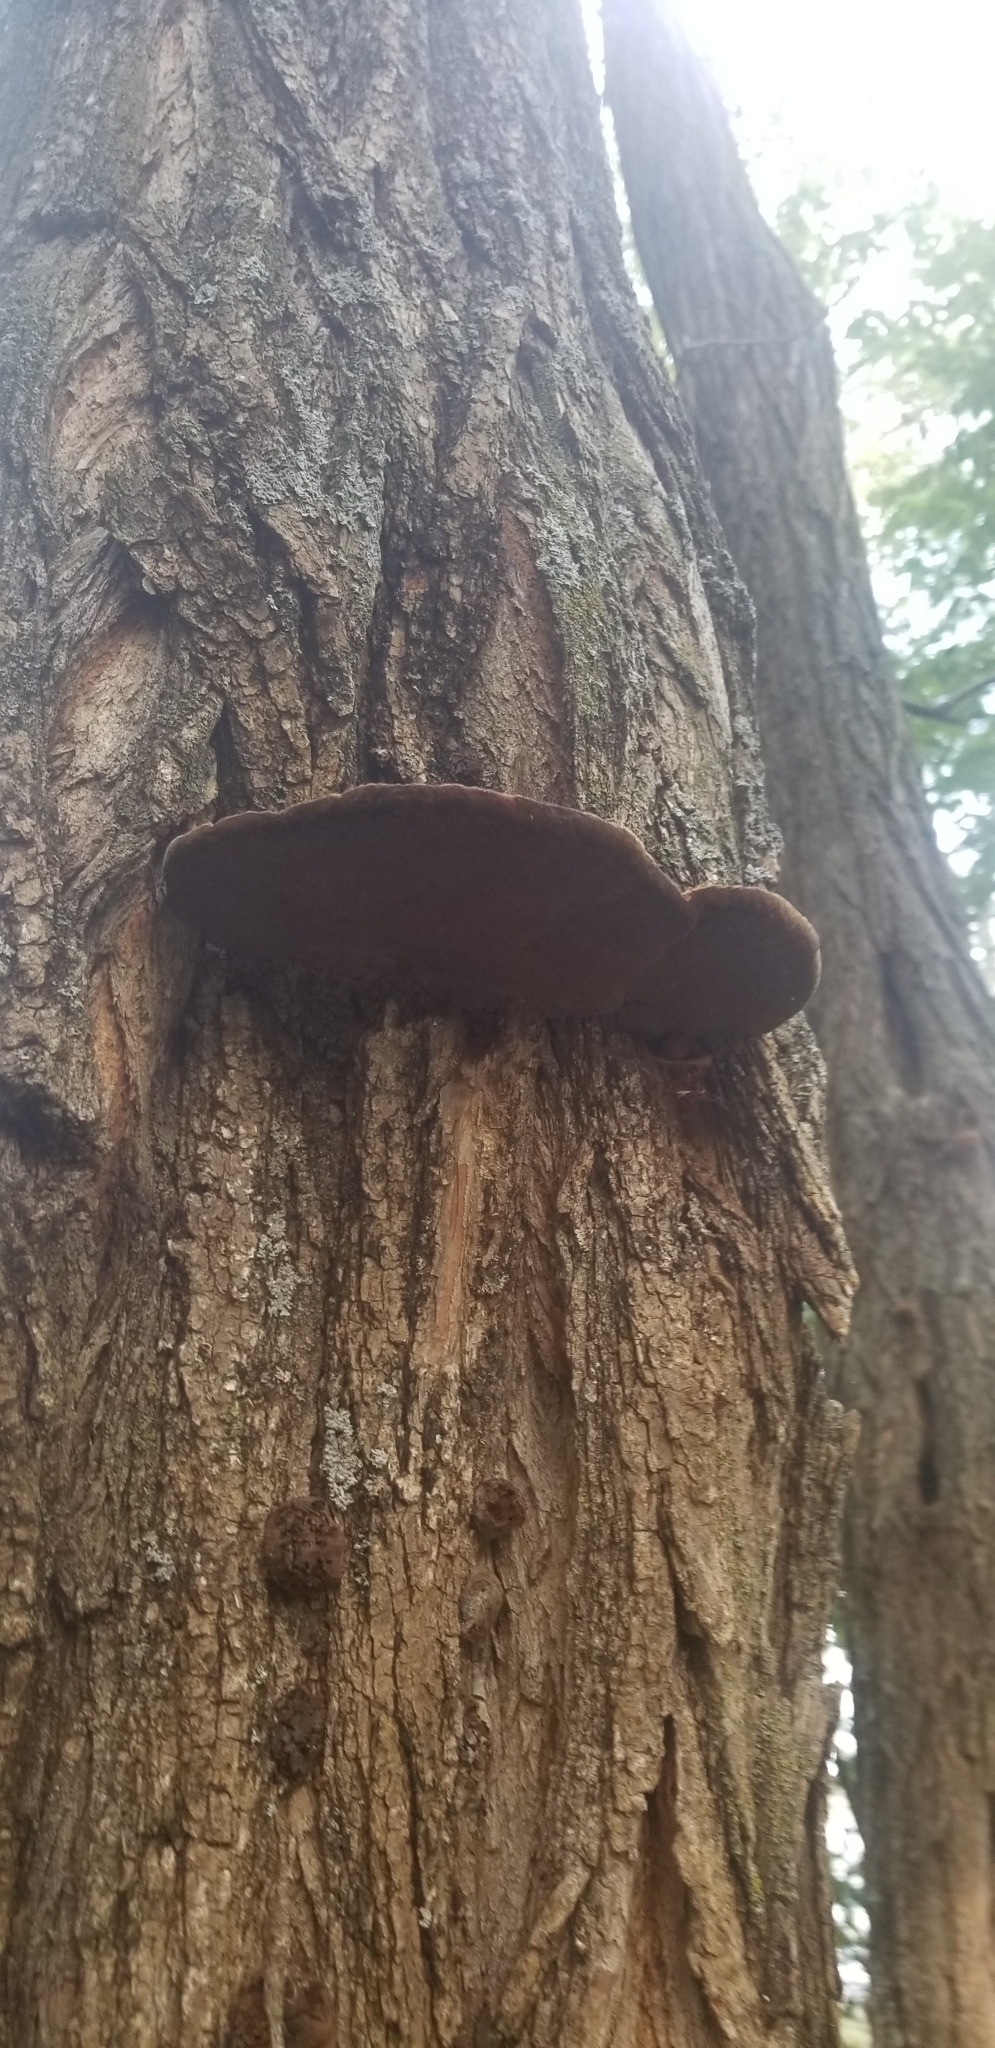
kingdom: Fungi
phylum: Basidiomycota
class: Agaricomycetes
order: Hymenochaetales
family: Hymenochaetaceae
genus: Phellinus
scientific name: Phellinus robiniae
